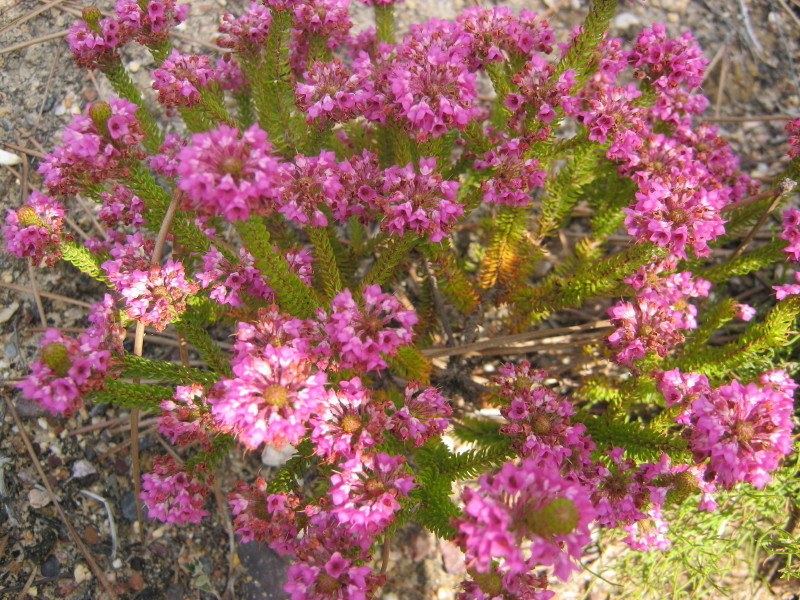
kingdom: Plantae
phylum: Tracheophyta
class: Magnoliopsida
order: Ericales
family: Ericaceae
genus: Erica
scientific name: Erica seriphiifolia
